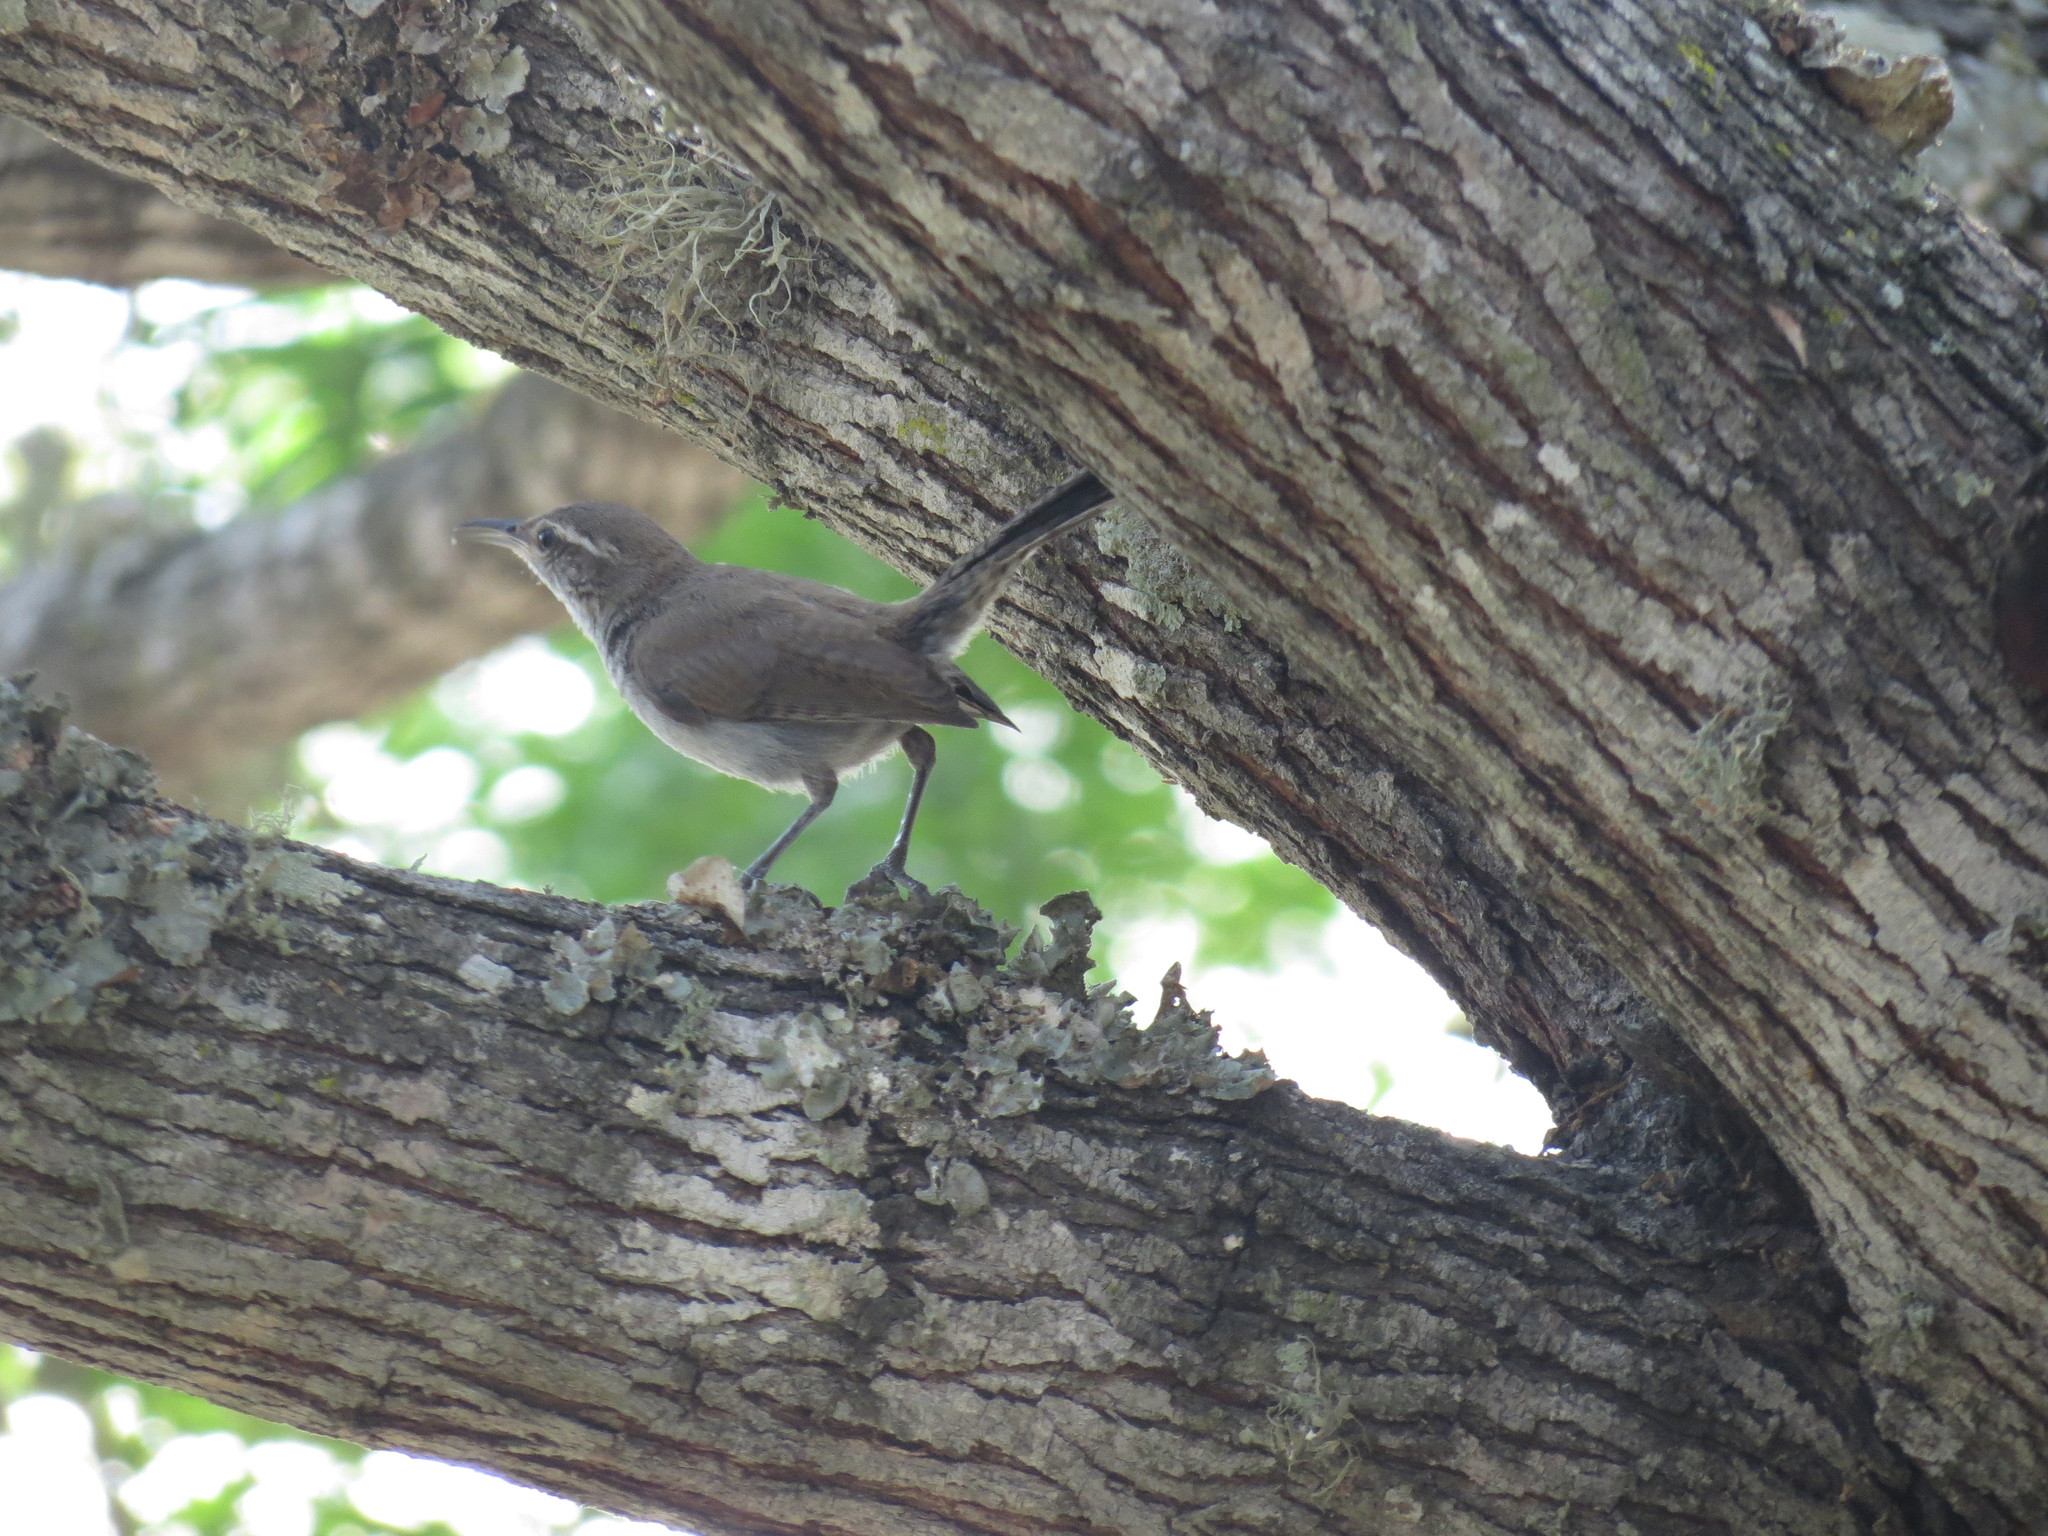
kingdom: Animalia
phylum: Chordata
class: Aves
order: Passeriformes
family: Troglodytidae
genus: Thryomanes
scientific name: Thryomanes bewickii
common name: Bewick's wren
